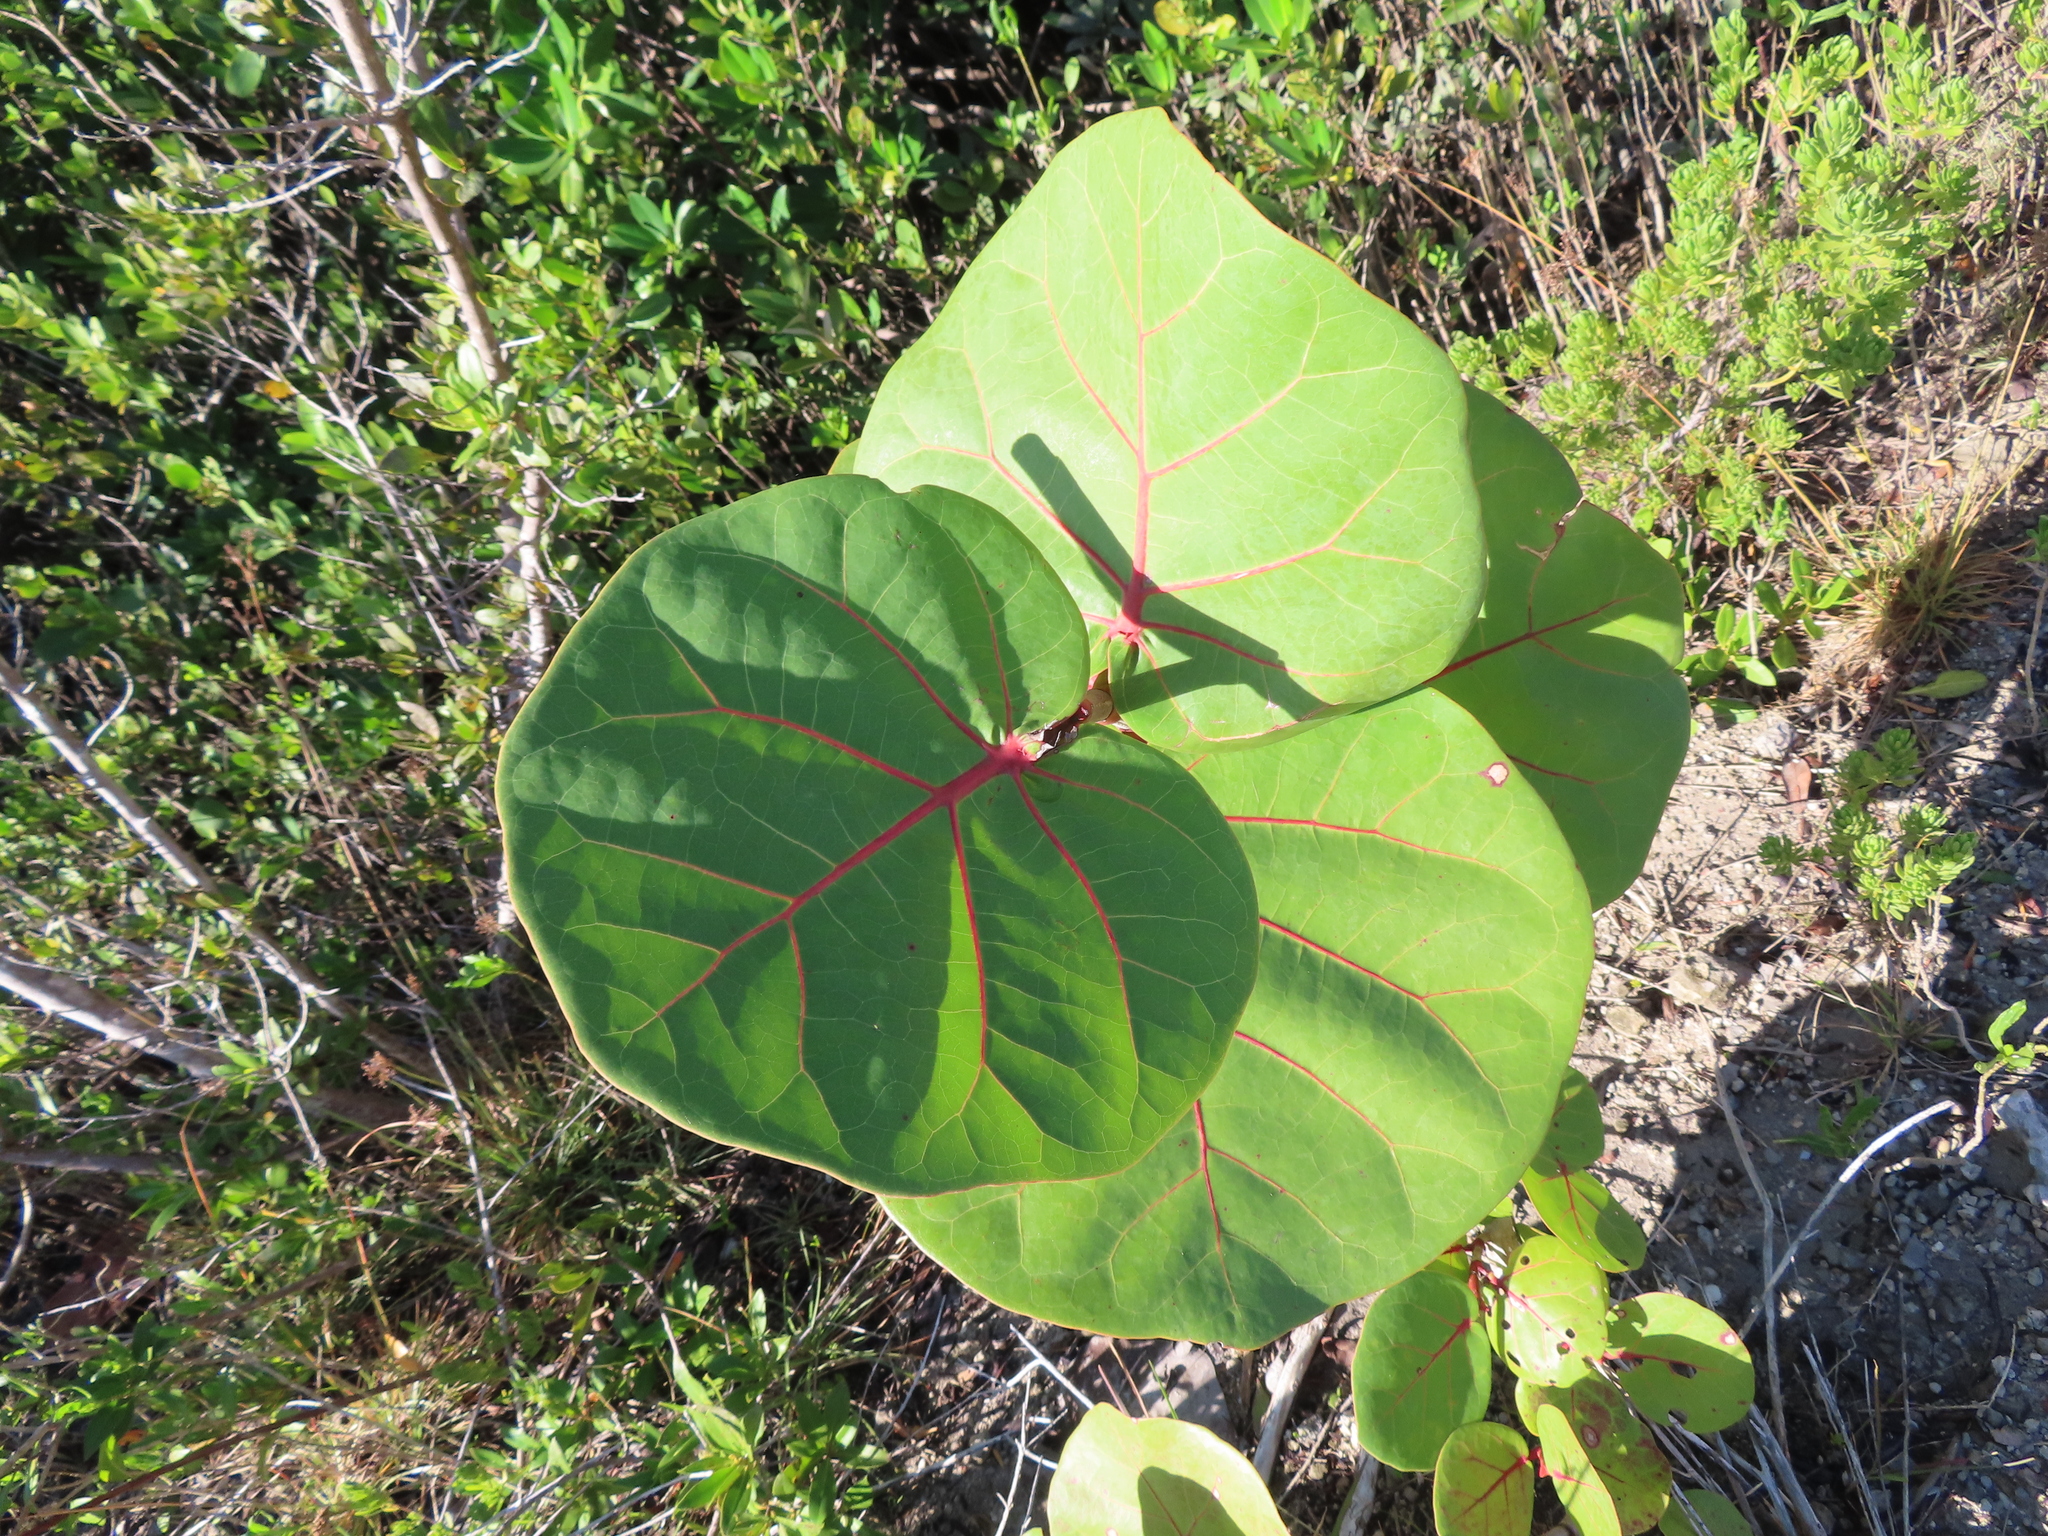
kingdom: Plantae
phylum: Tracheophyta
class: Magnoliopsida
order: Caryophyllales
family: Polygonaceae
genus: Coccoloba
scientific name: Coccoloba uvifera
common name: Seagrape
